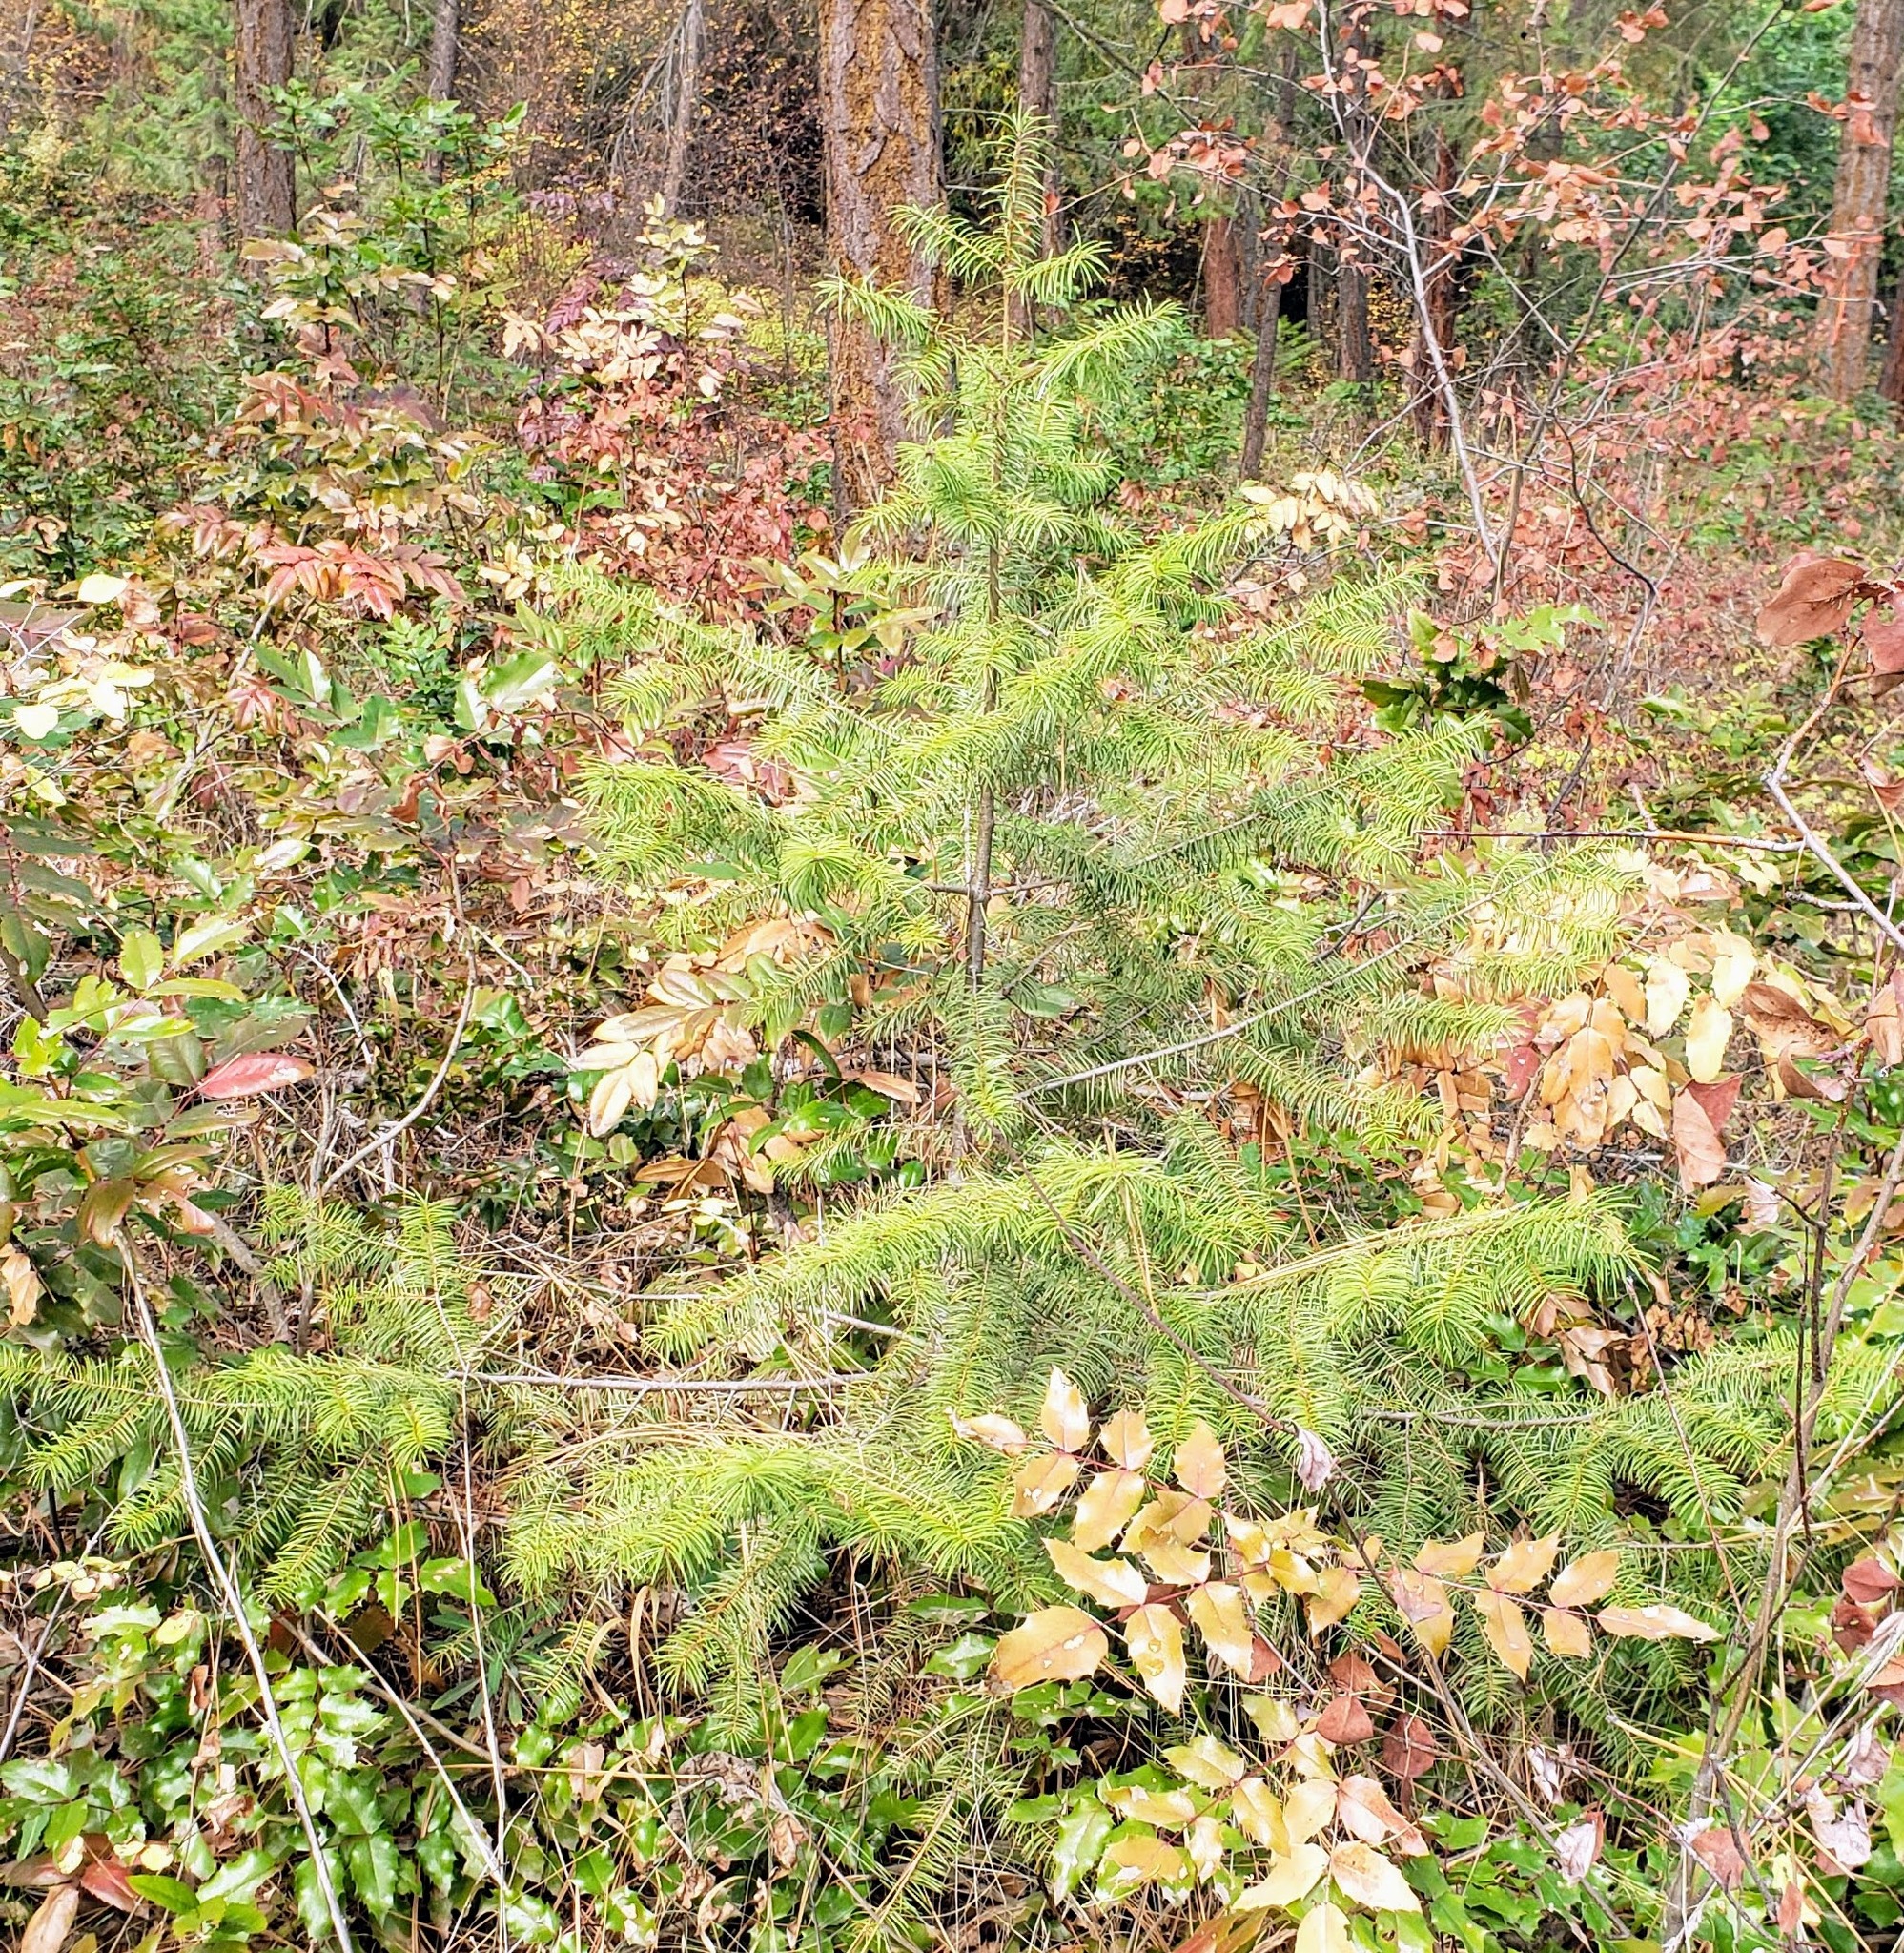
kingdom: Plantae
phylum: Tracheophyta
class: Pinopsida
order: Pinales
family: Pinaceae
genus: Pseudotsuga
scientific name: Pseudotsuga menziesii
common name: Douglas fir
